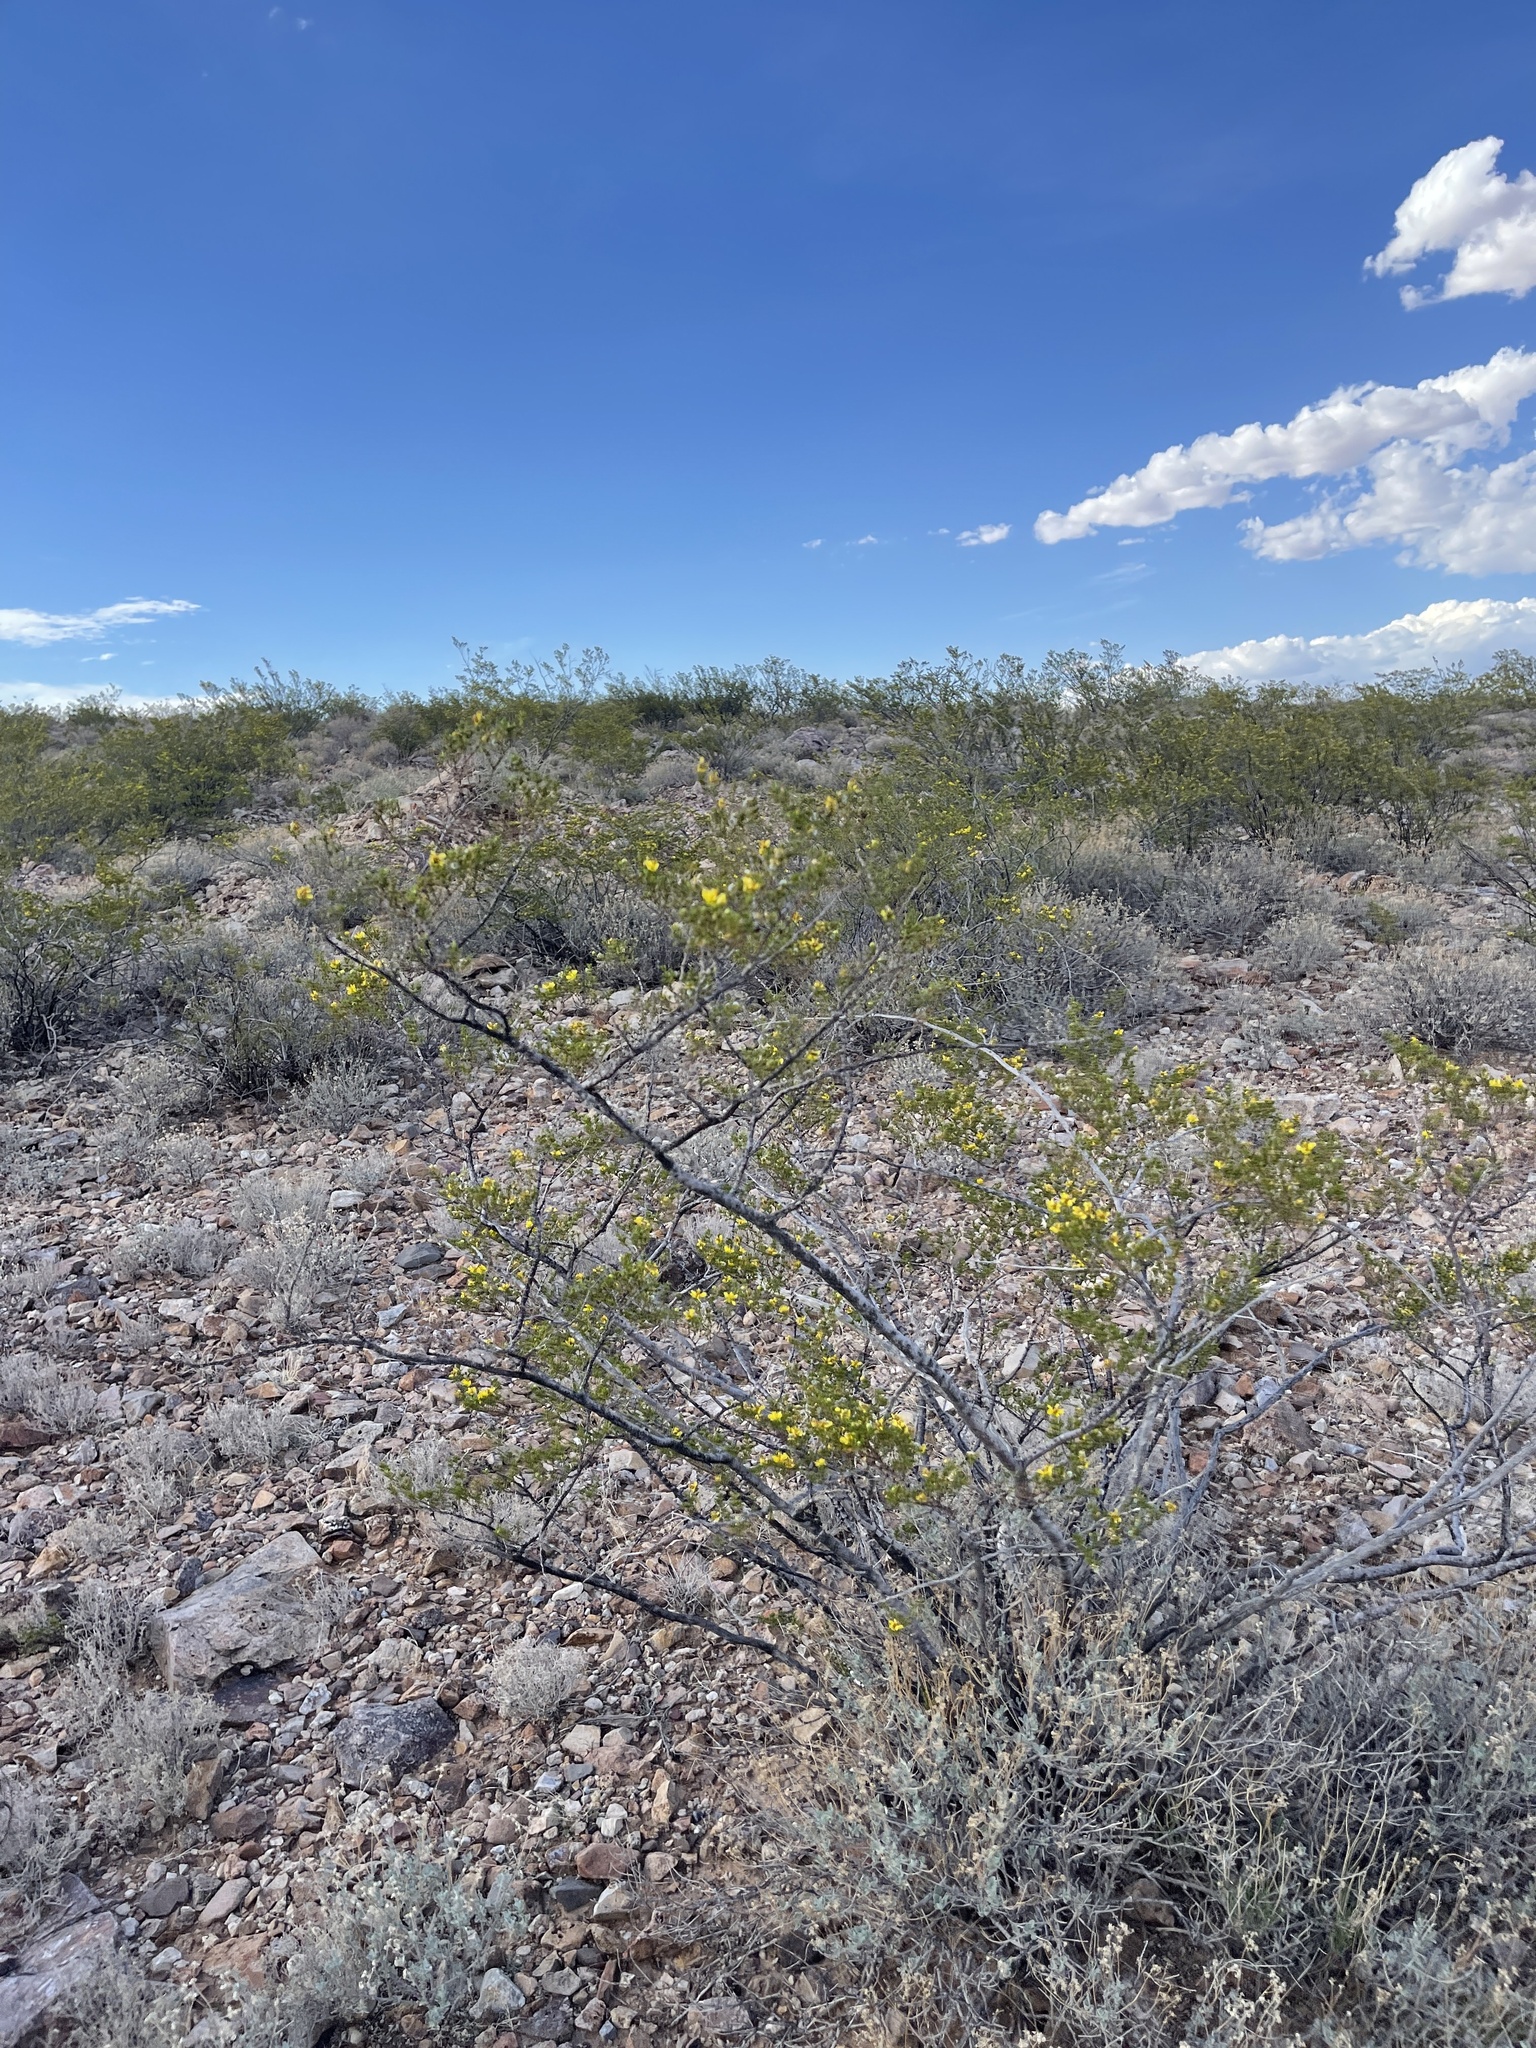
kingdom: Plantae
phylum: Tracheophyta
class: Magnoliopsida
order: Zygophyllales
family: Zygophyllaceae
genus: Larrea
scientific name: Larrea tridentata
